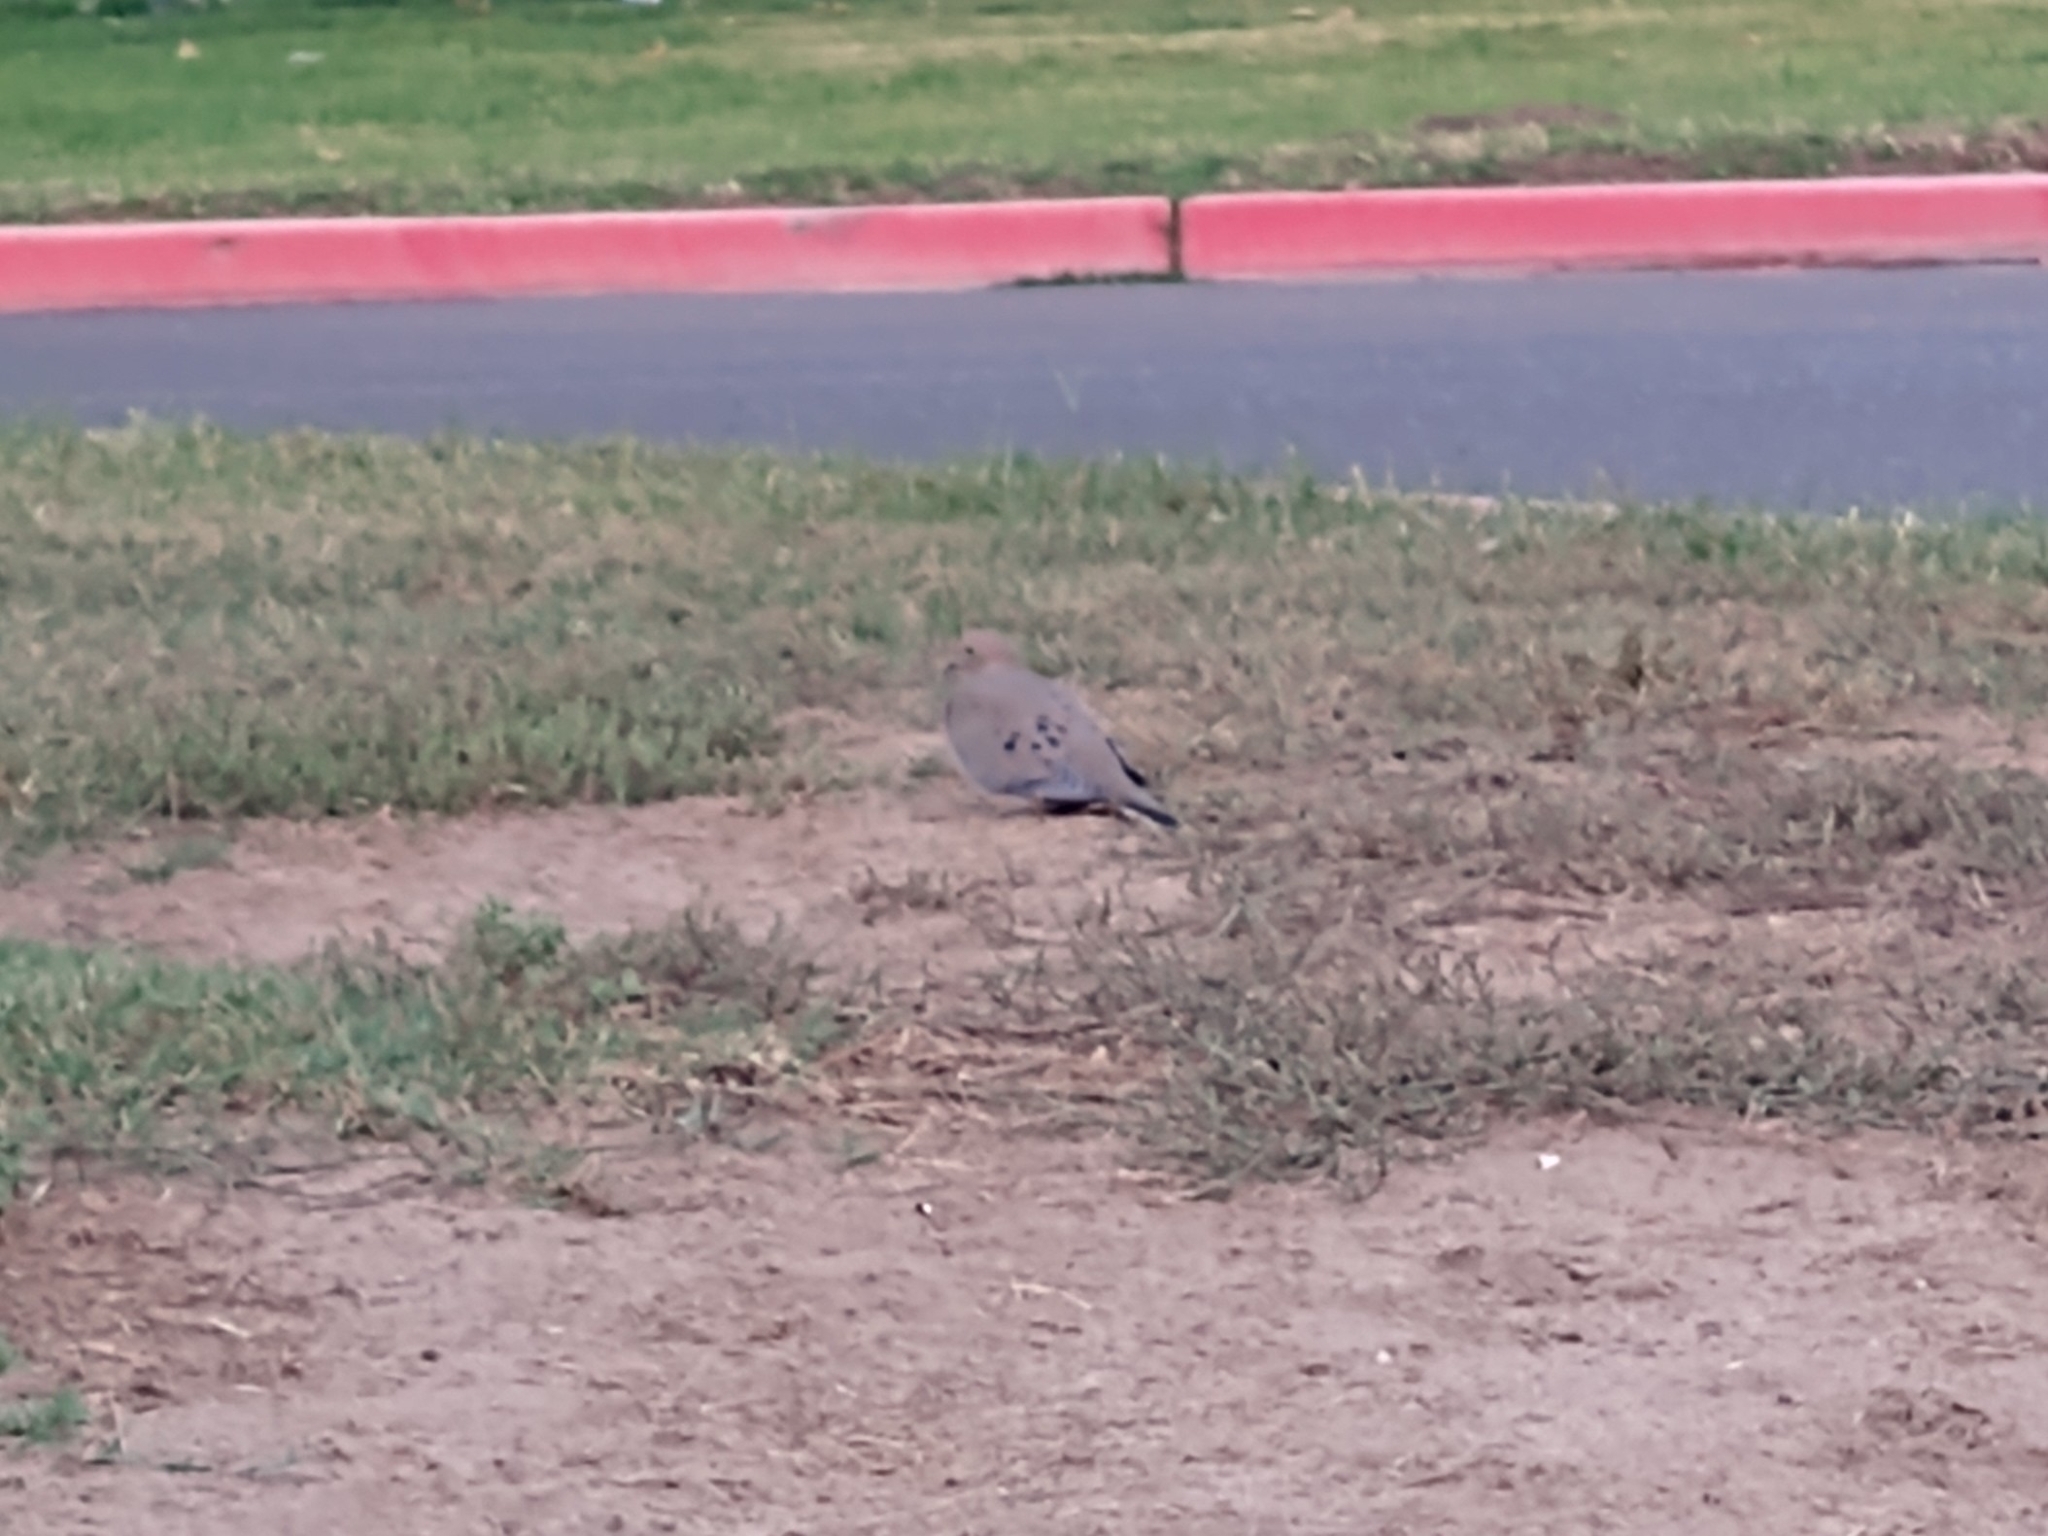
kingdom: Animalia
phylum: Chordata
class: Aves
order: Columbiformes
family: Columbidae
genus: Zenaida
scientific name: Zenaida macroura
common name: Mourning dove
